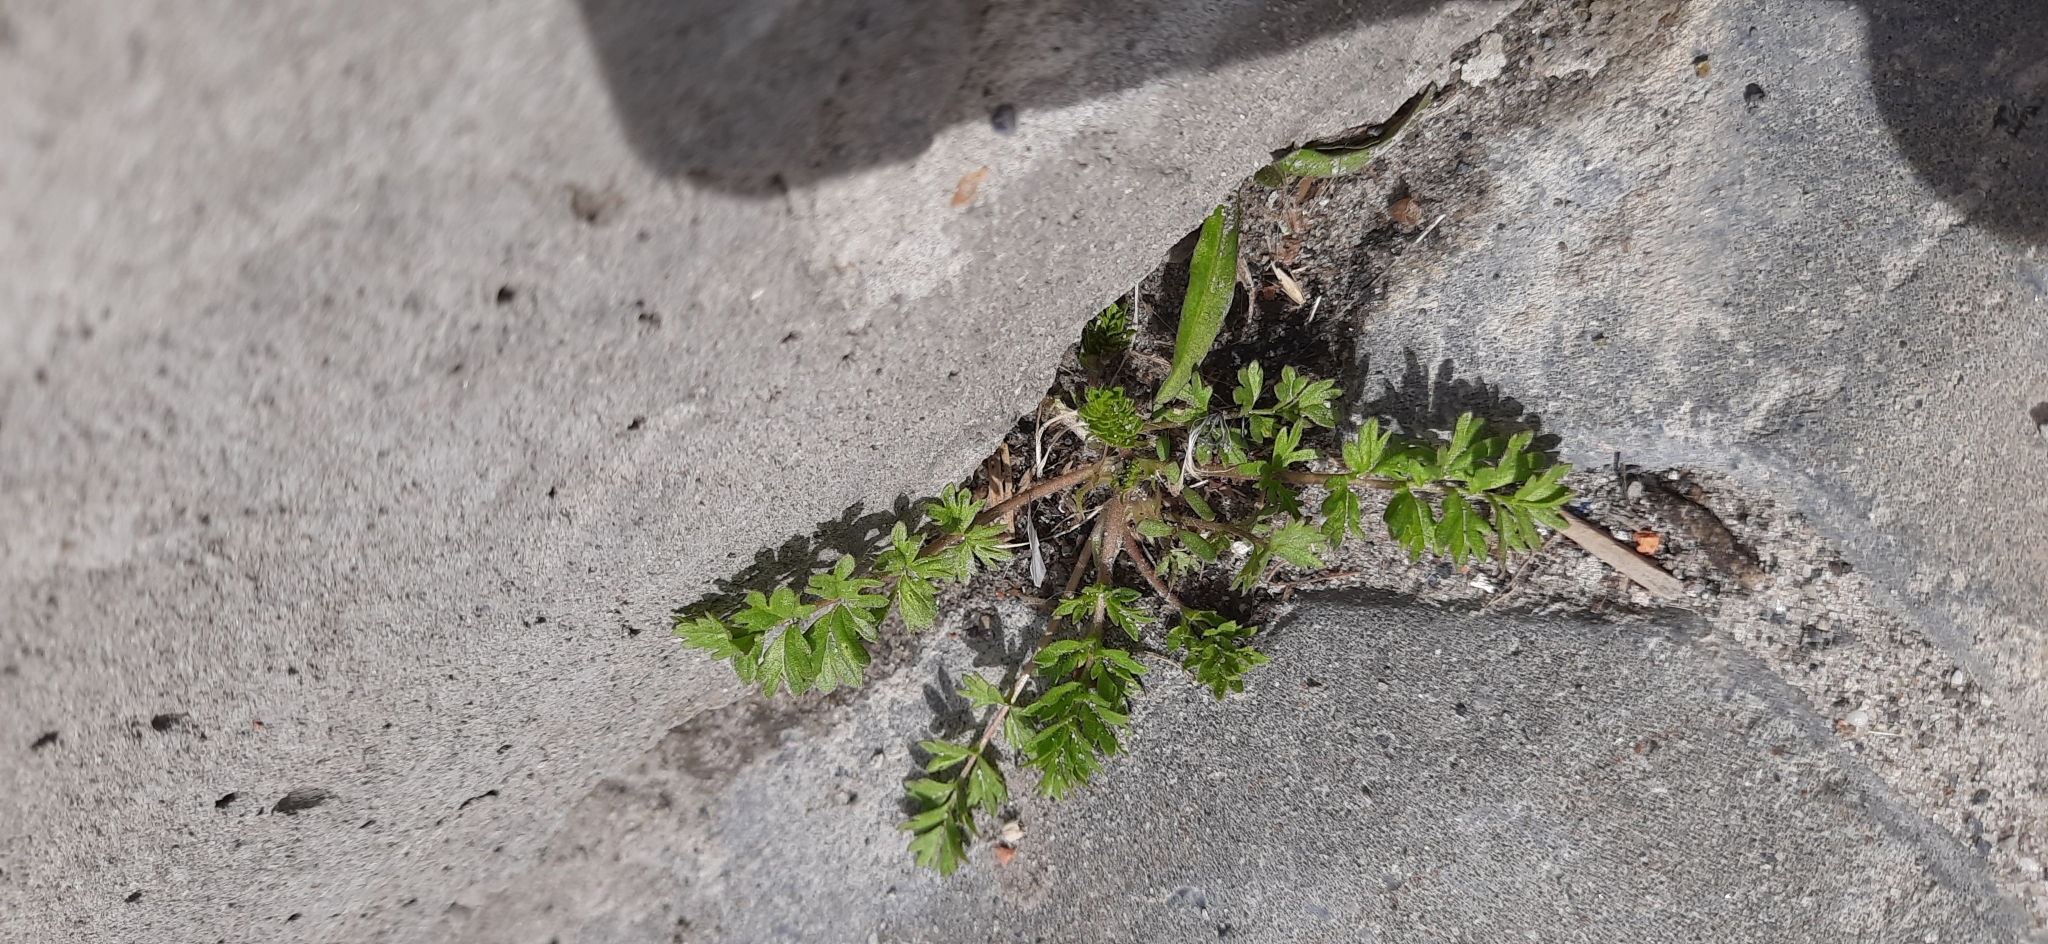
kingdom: Plantae
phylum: Tracheophyta
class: Magnoliopsida
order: Rosales
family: Rosaceae
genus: Potentilla
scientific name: Potentilla supina
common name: Prostrate cinquefoil
